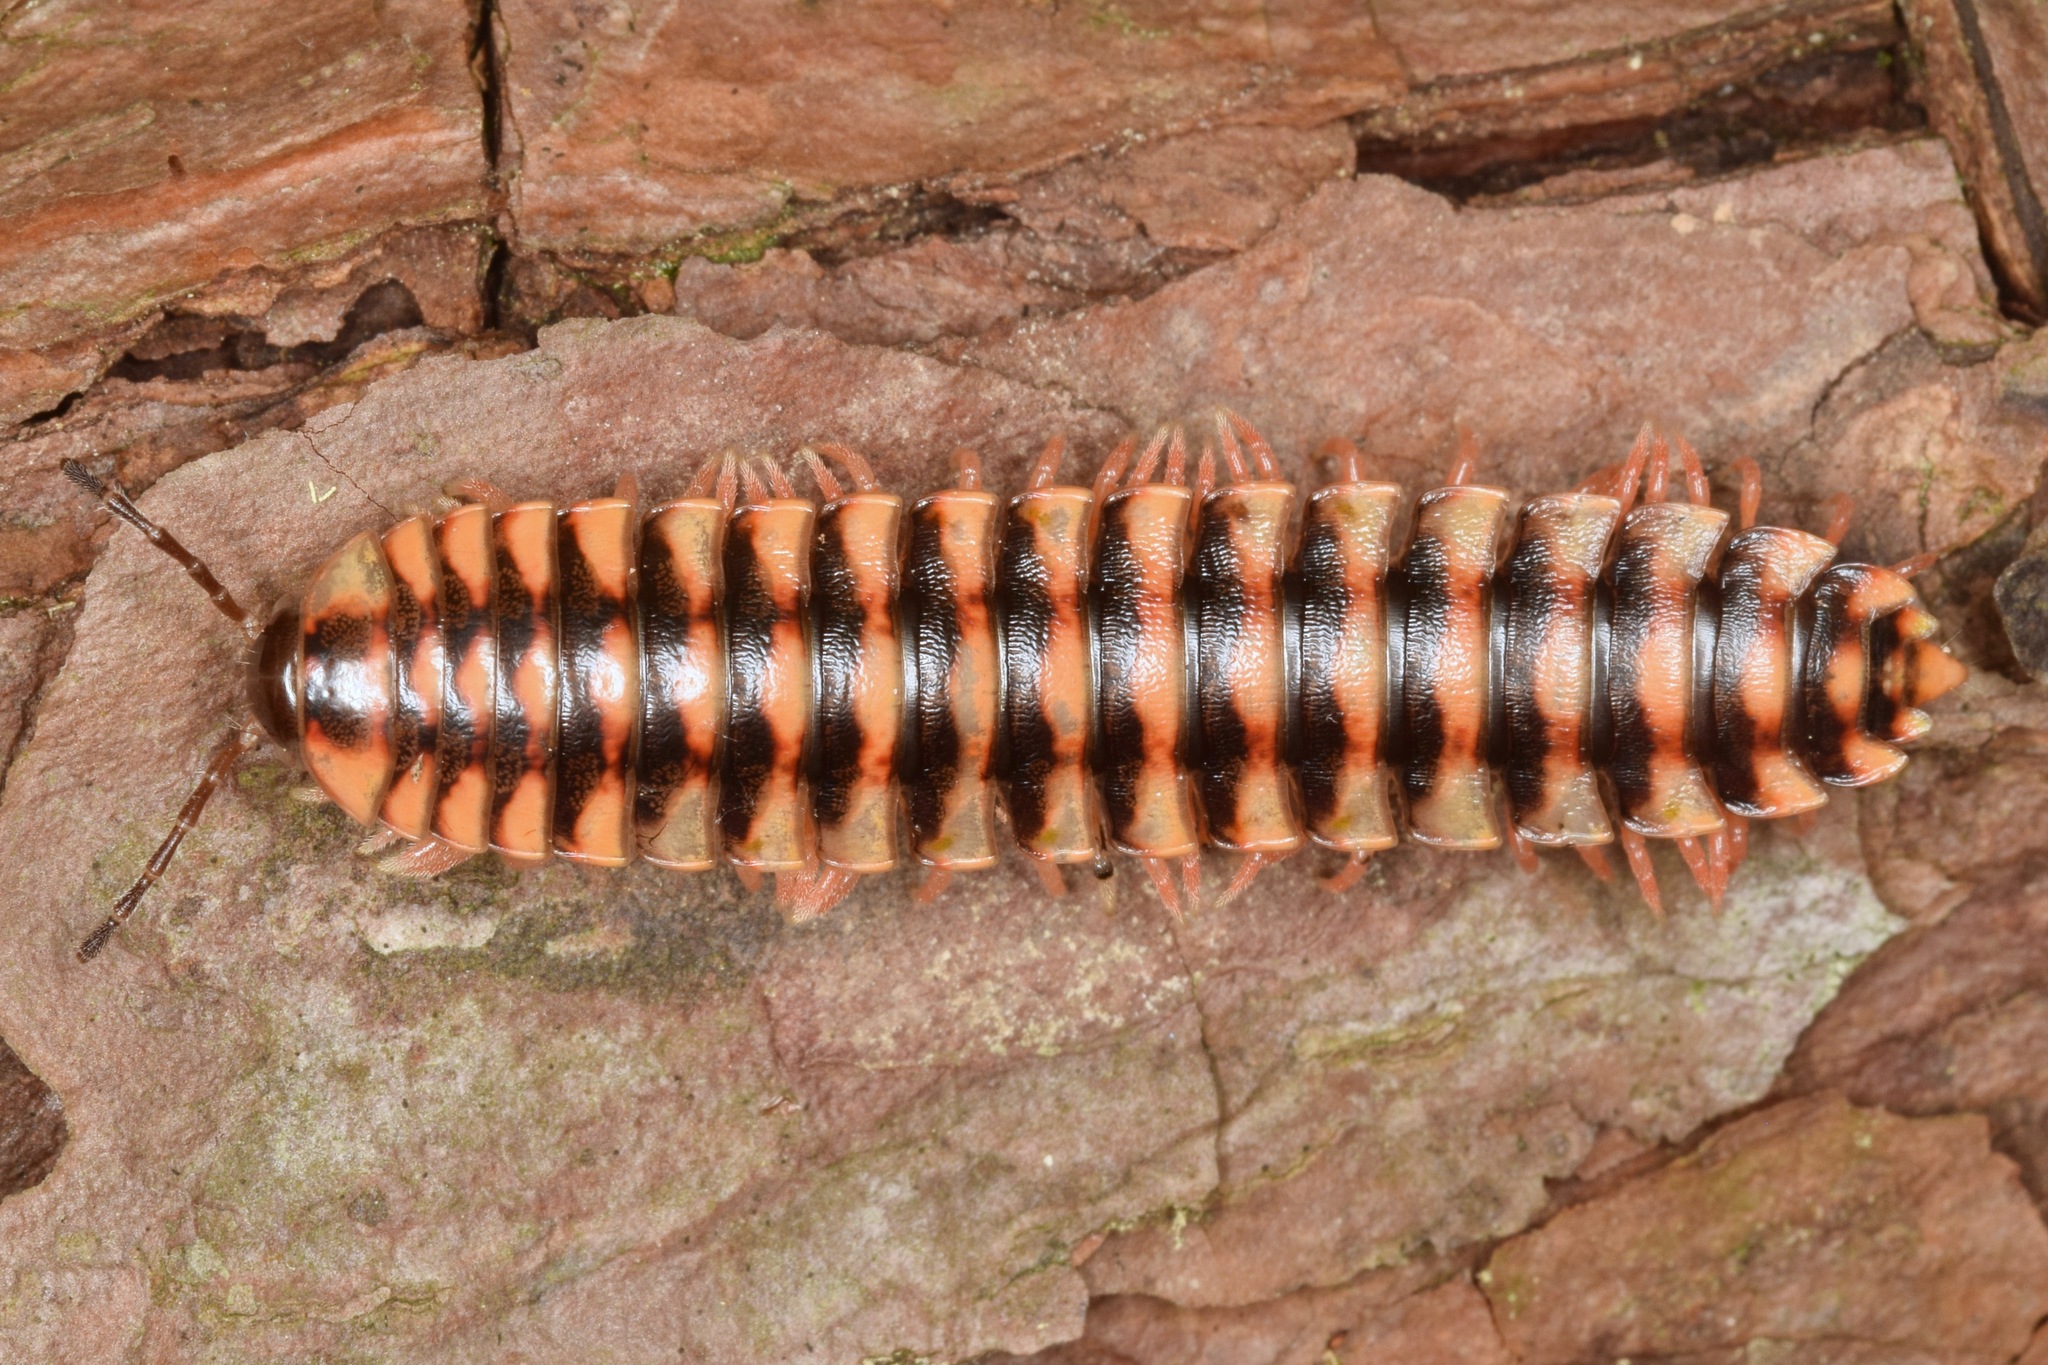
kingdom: Animalia
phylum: Arthropoda
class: Diplopoda
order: Polydesmida
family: Xystodesmidae
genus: Cherokia
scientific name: Cherokia georgiana
